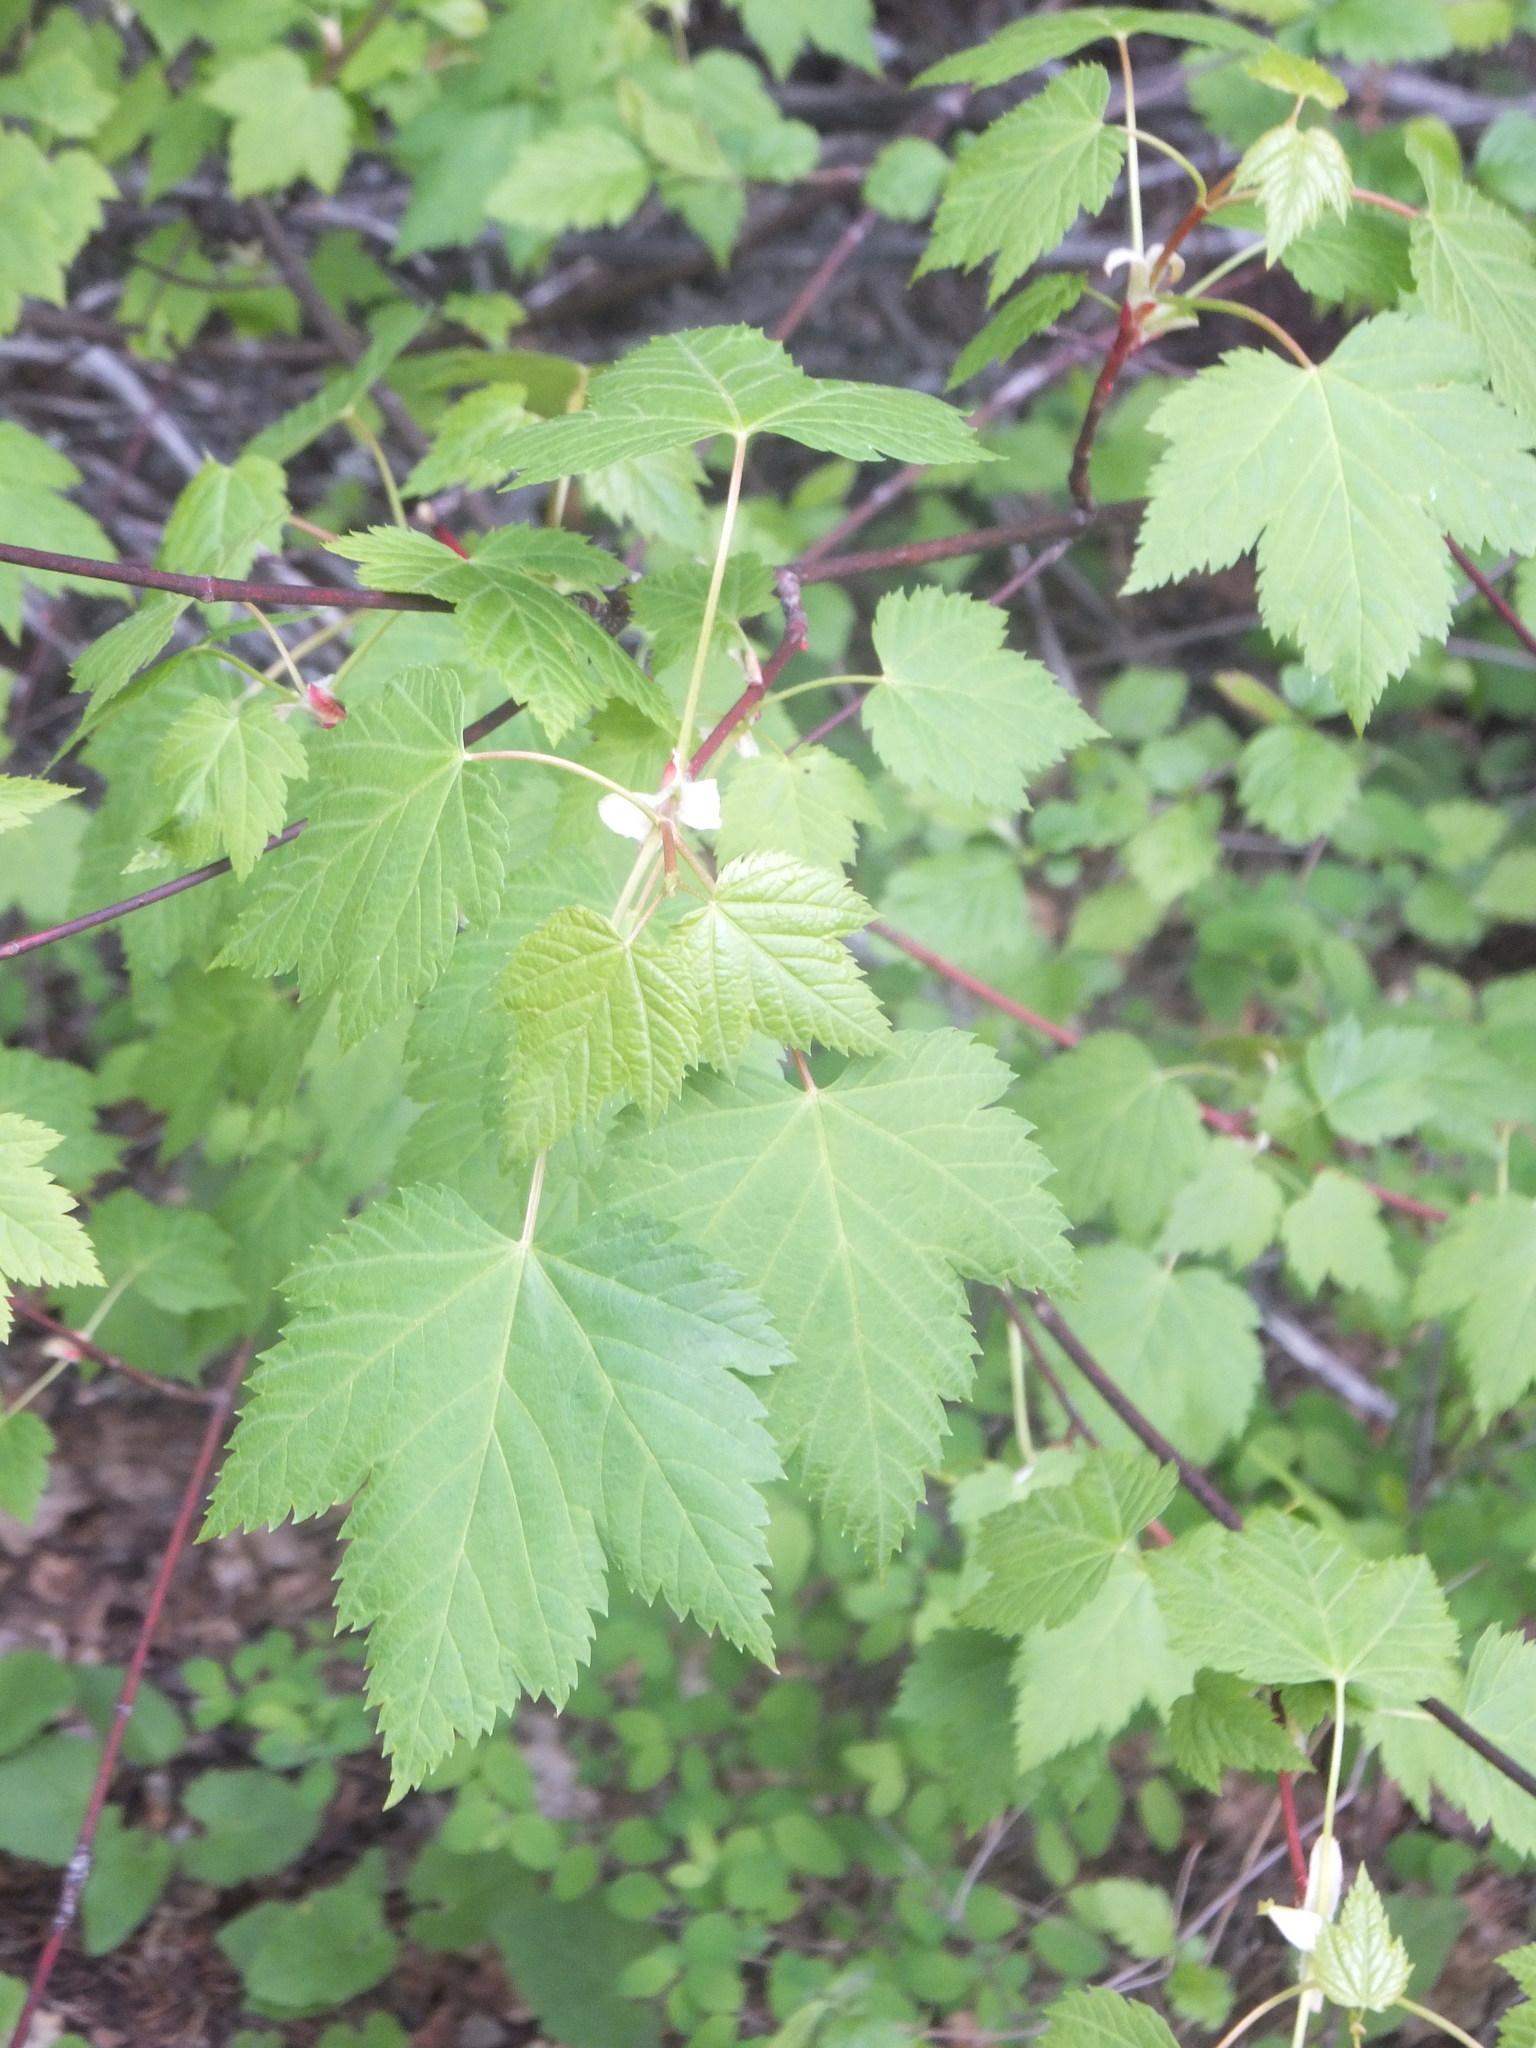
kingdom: Plantae
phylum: Tracheophyta
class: Magnoliopsida
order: Sapindales
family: Sapindaceae
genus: Acer
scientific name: Acer glabrum
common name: Rocky mountain maple
